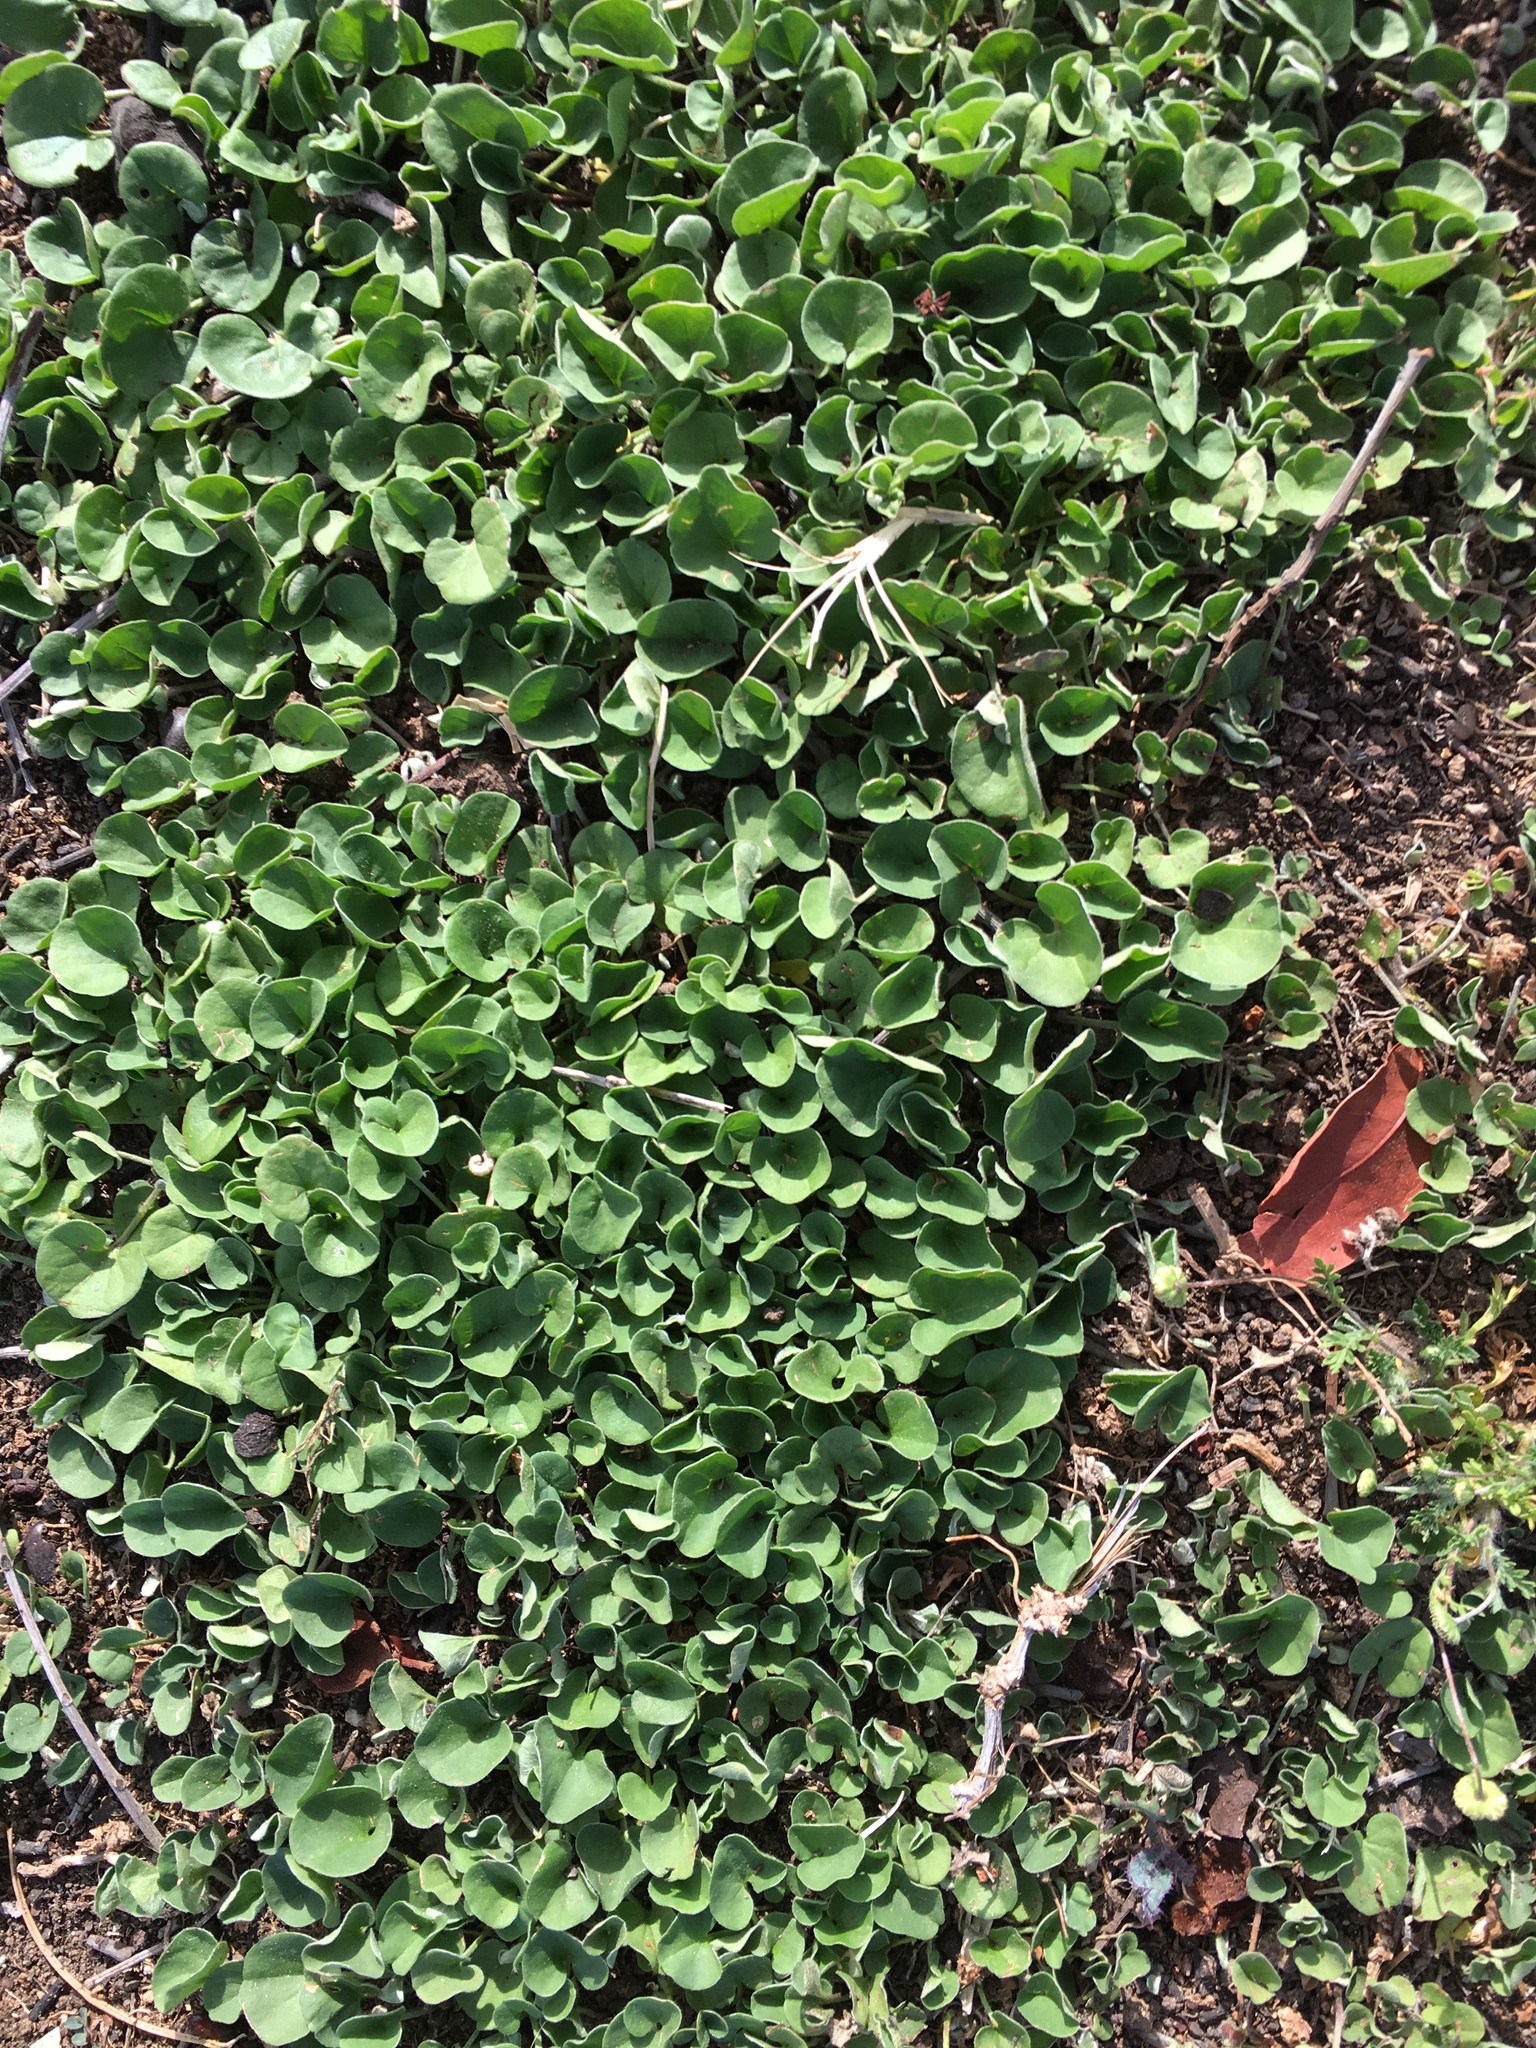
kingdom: Plantae
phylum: Tracheophyta
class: Magnoliopsida
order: Solanales
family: Convolvulaceae
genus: Dichondra
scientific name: Dichondra micrantha
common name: Kidneyweed
